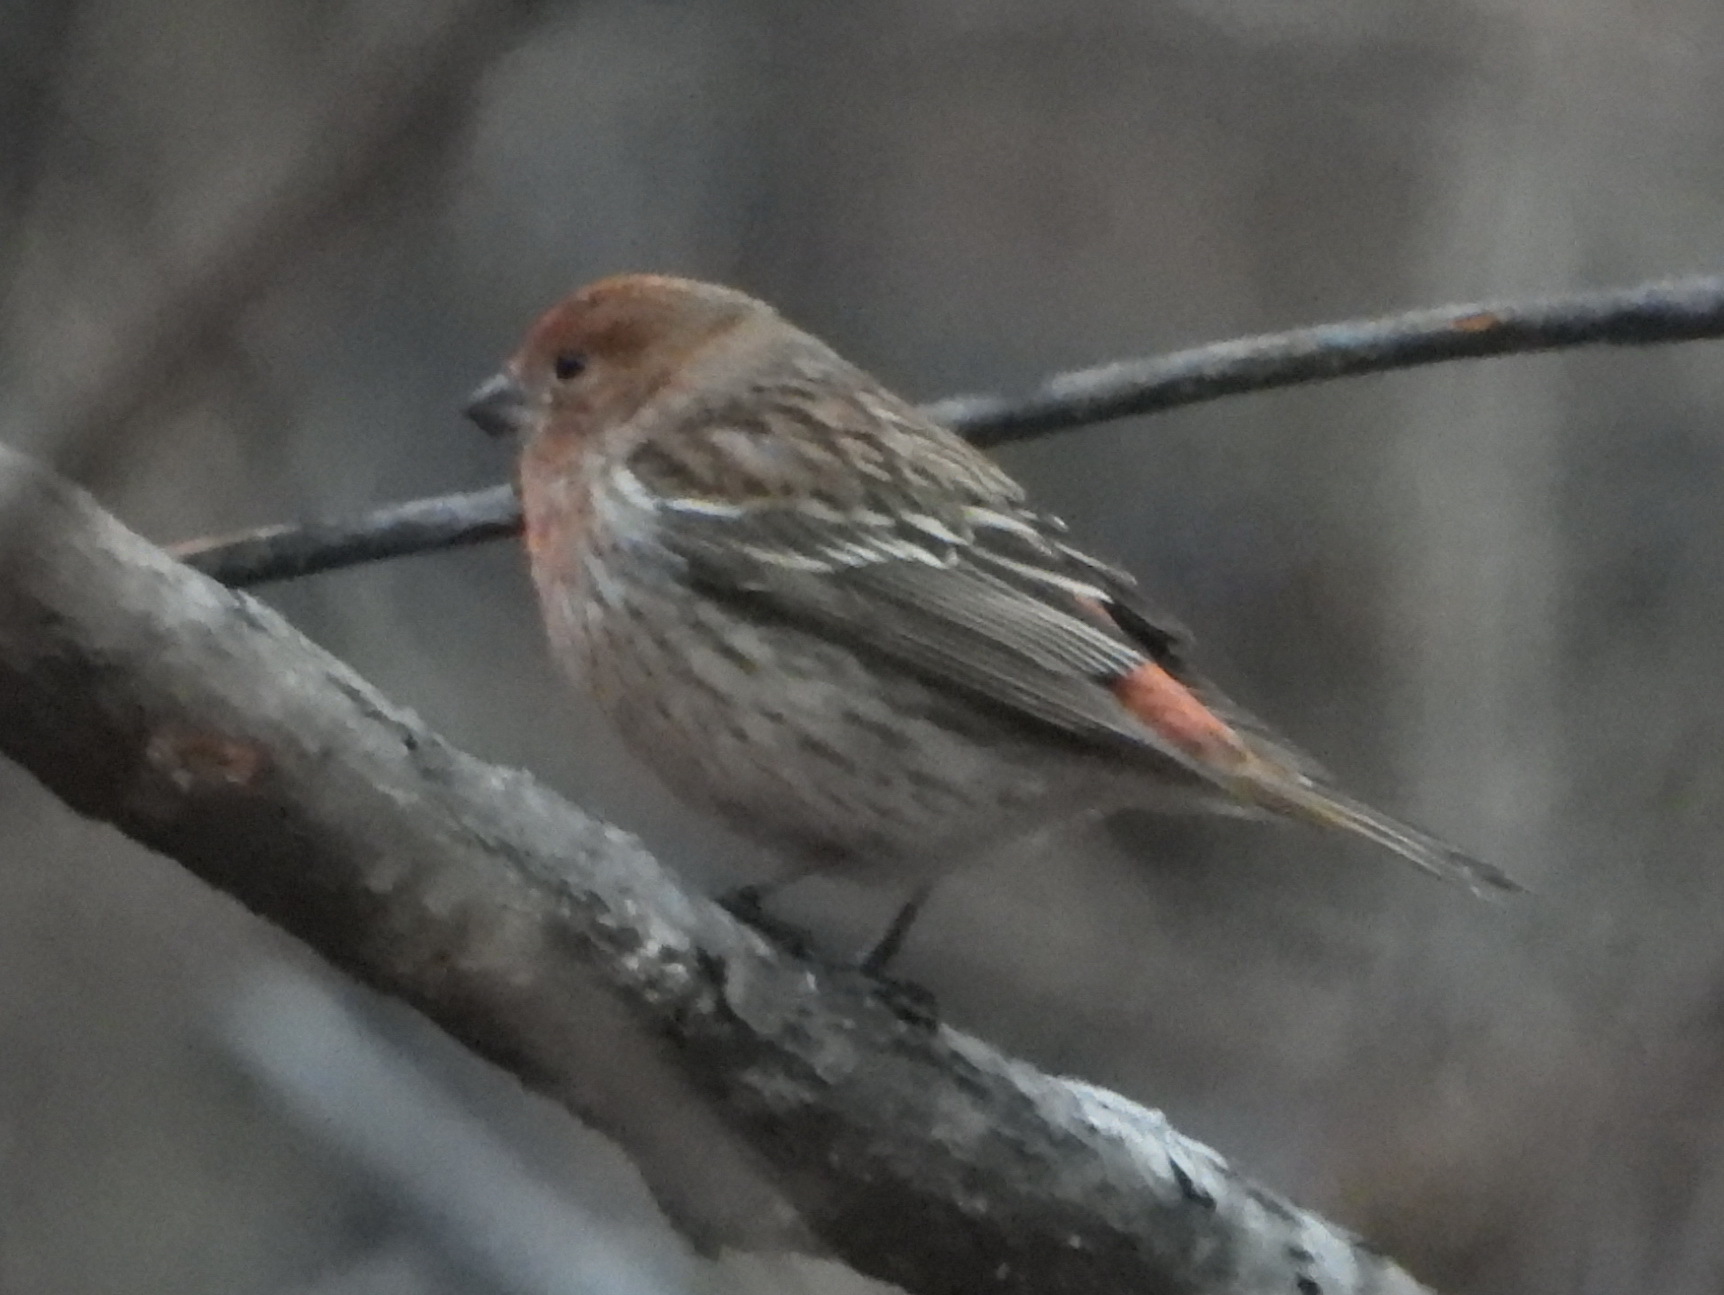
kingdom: Animalia
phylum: Chordata
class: Aves
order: Passeriformes
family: Fringillidae
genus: Carpodacus
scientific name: Carpodacus roseus
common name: Pallas's rosefinch
